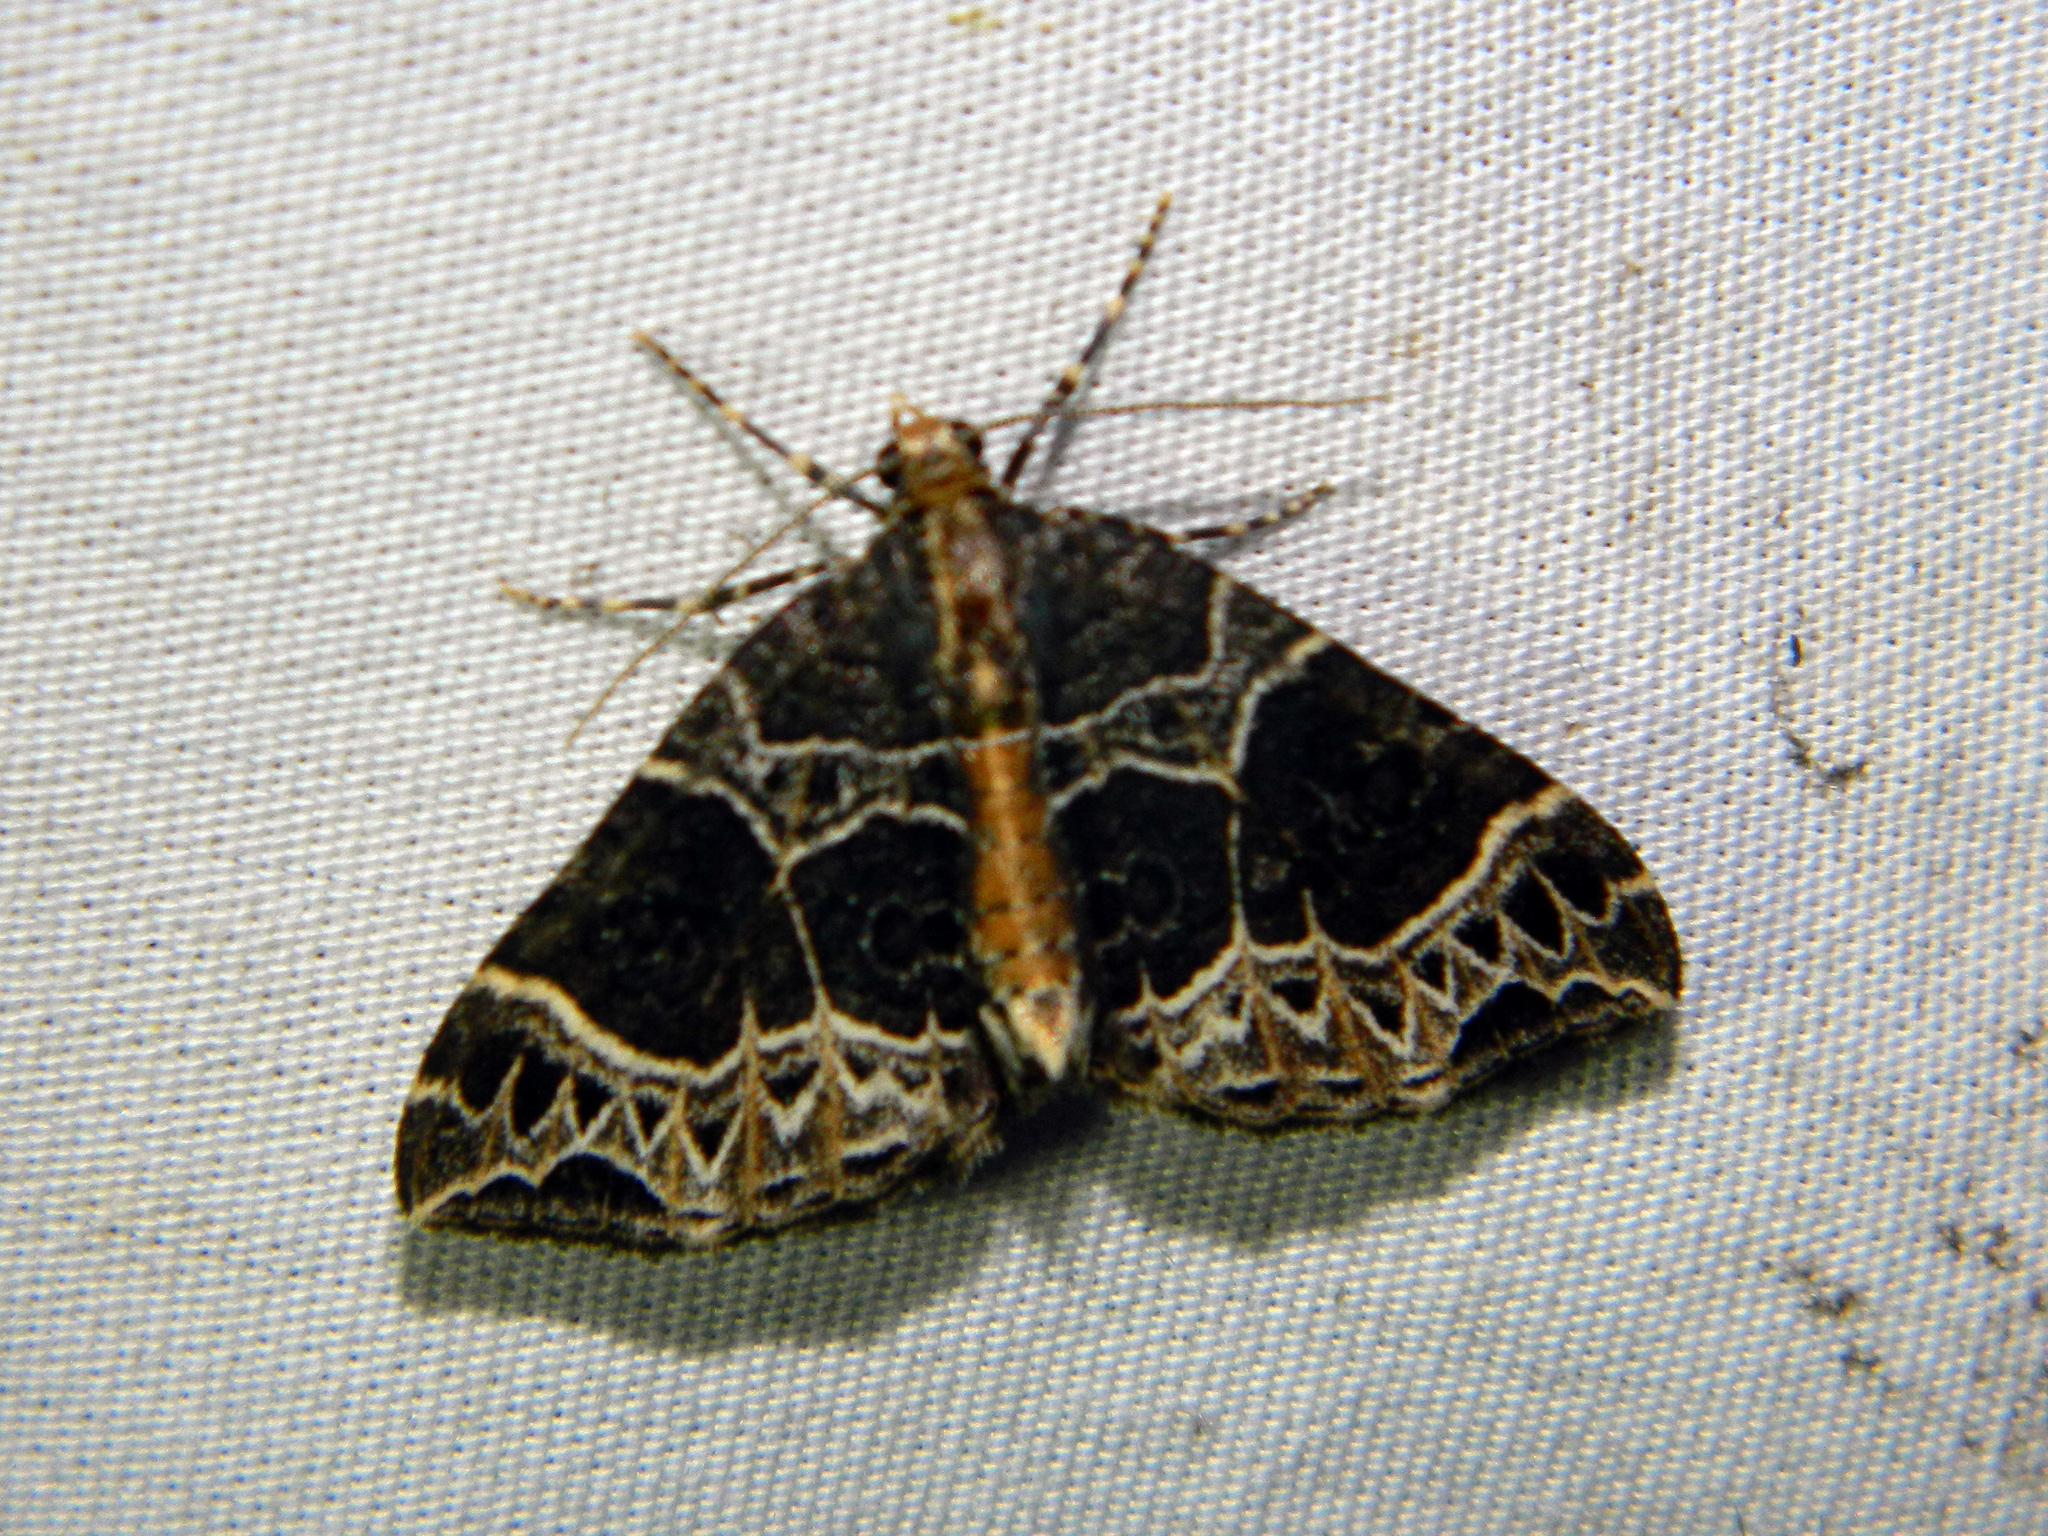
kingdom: Animalia
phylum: Arthropoda
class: Insecta
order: Lepidoptera
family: Geometridae
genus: Ecliptopera
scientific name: Ecliptopera silaceata
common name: Small phoenix
